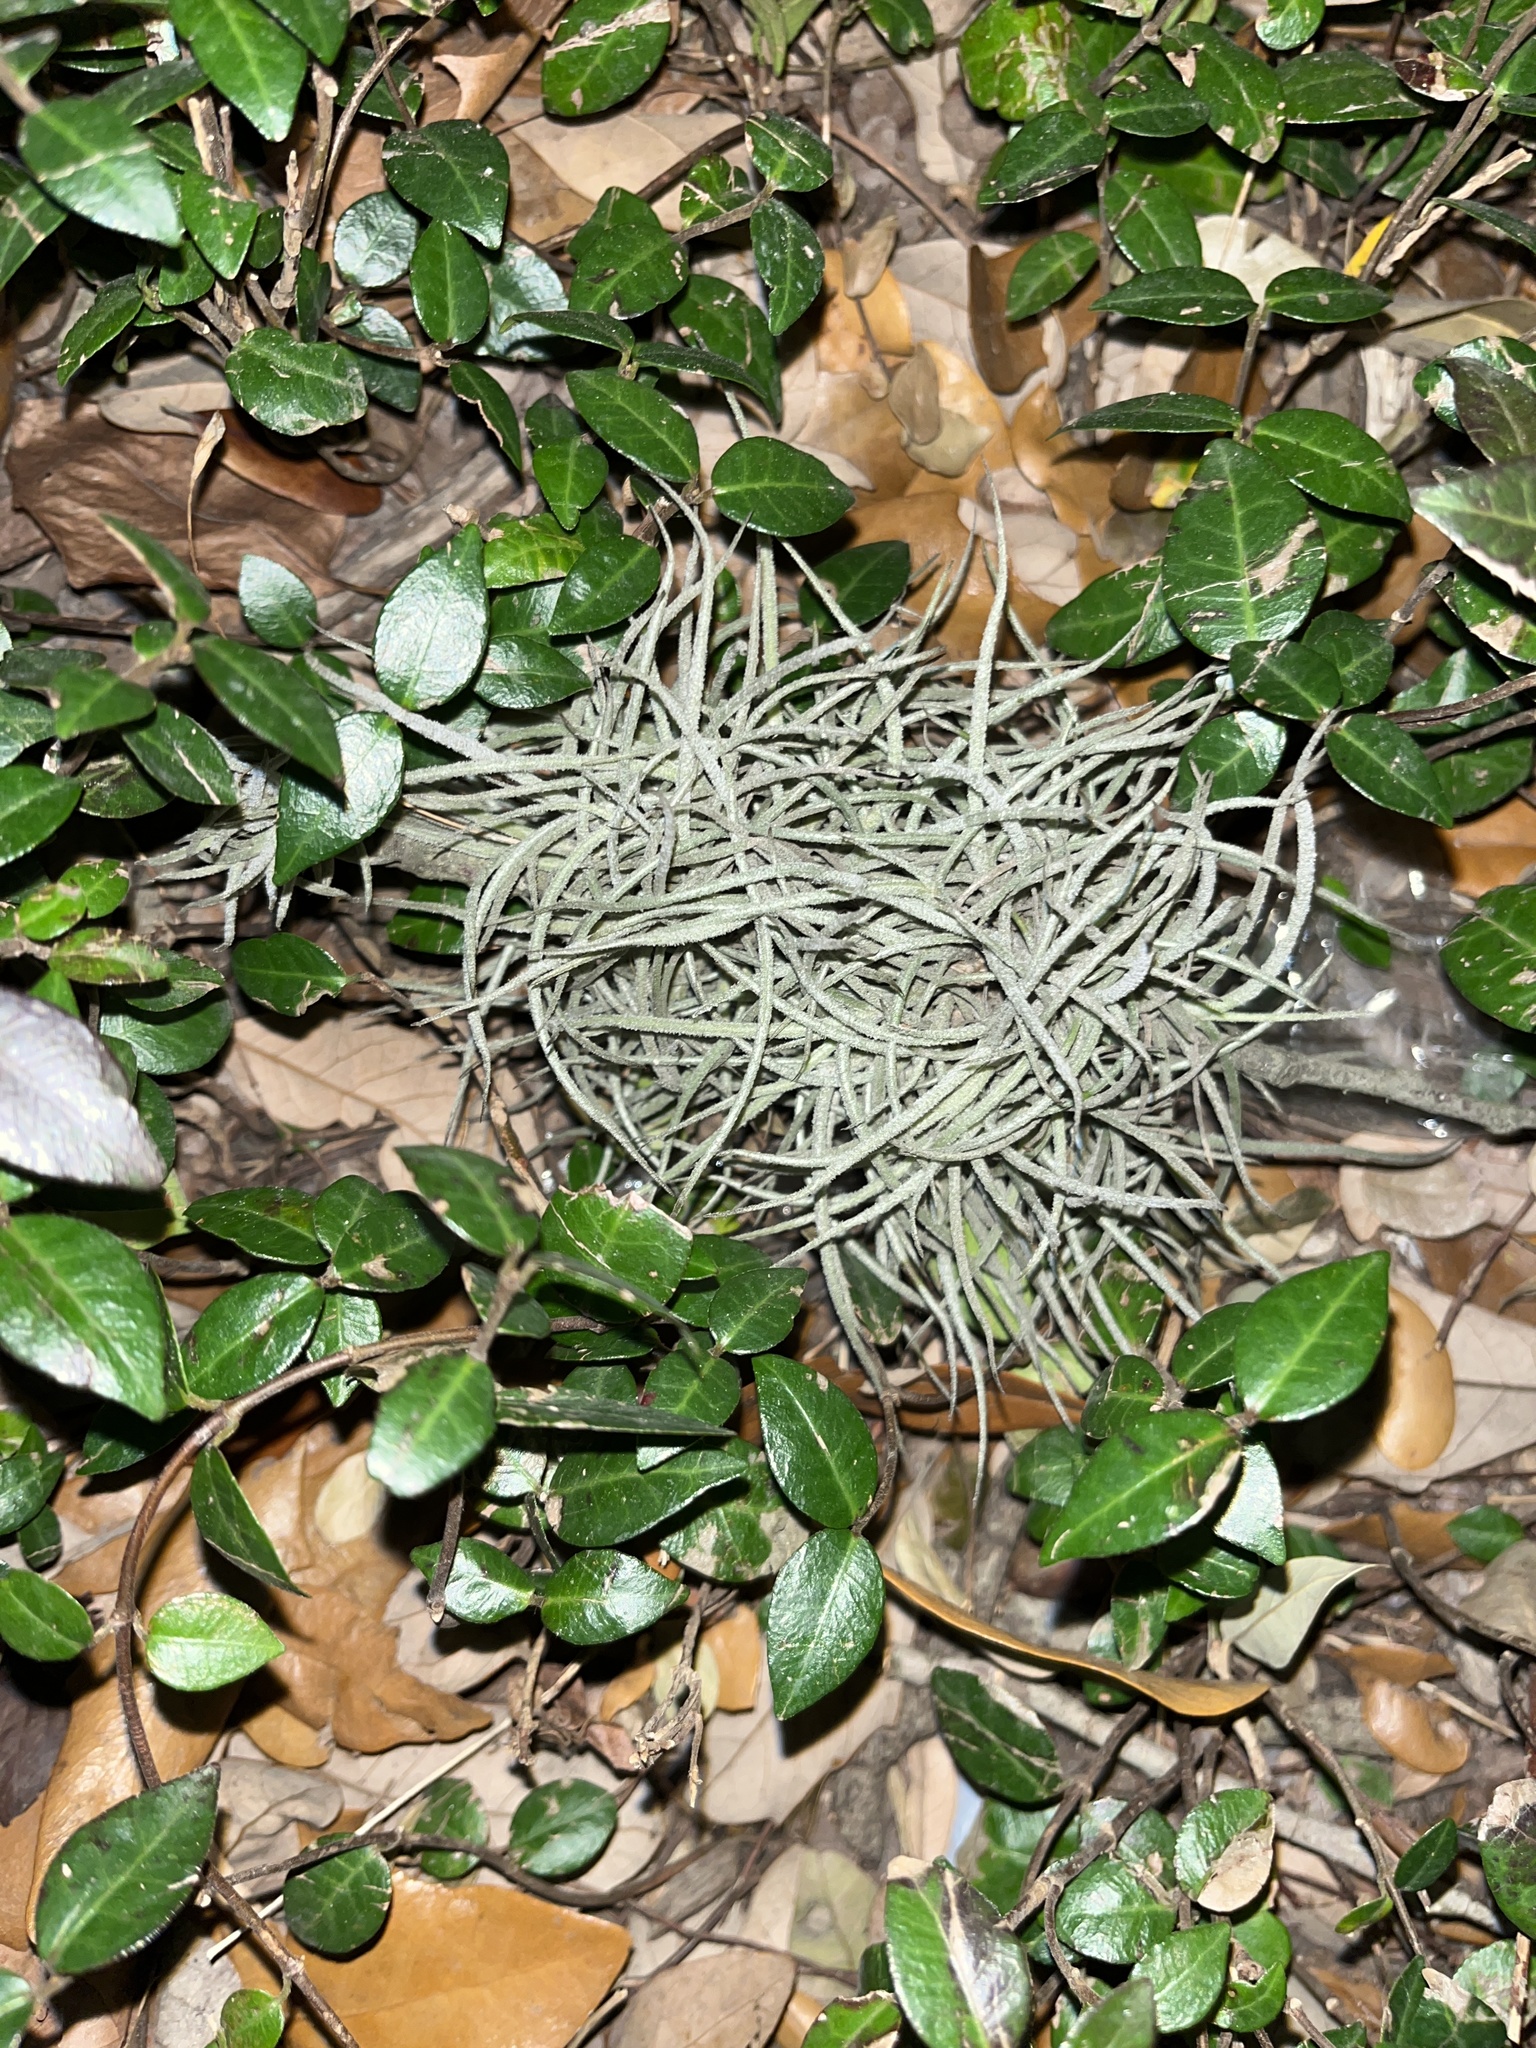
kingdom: Plantae
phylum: Tracheophyta
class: Liliopsida
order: Poales
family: Bromeliaceae
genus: Tillandsia
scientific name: Tillandsia recurvata
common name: Small ballmoss
